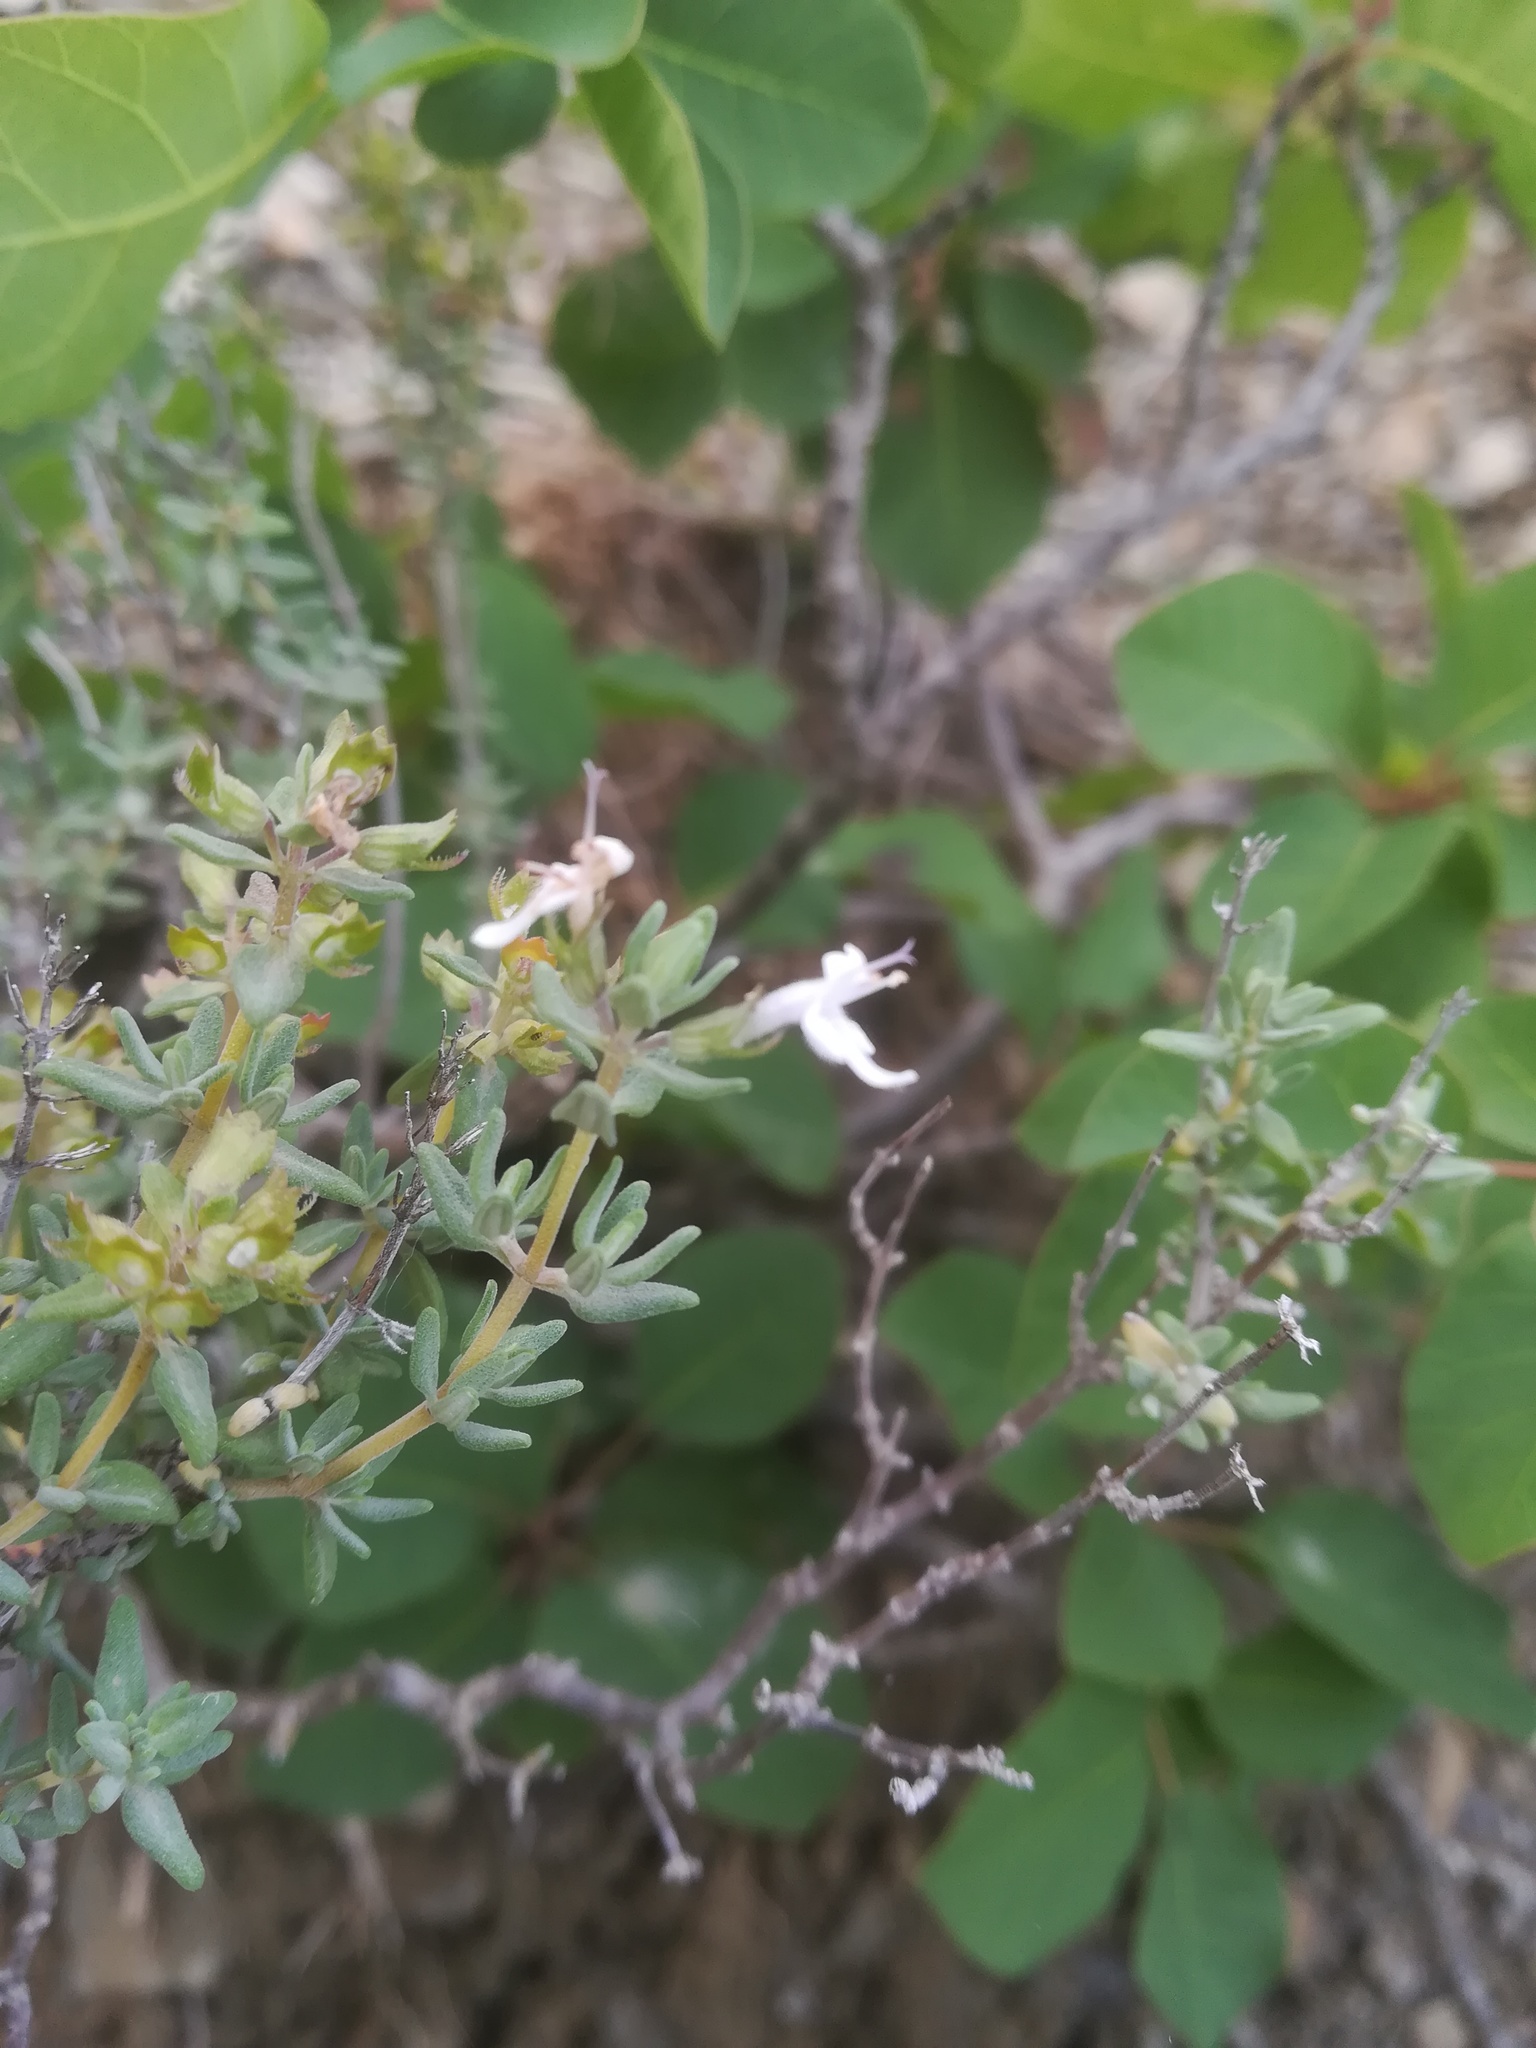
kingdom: Plantae
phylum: Tracheophyta
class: Magnoliopsida
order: Lamiales
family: Lamiaceae
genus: Thymus
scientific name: Thymus vulgaris
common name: Garden thyme
